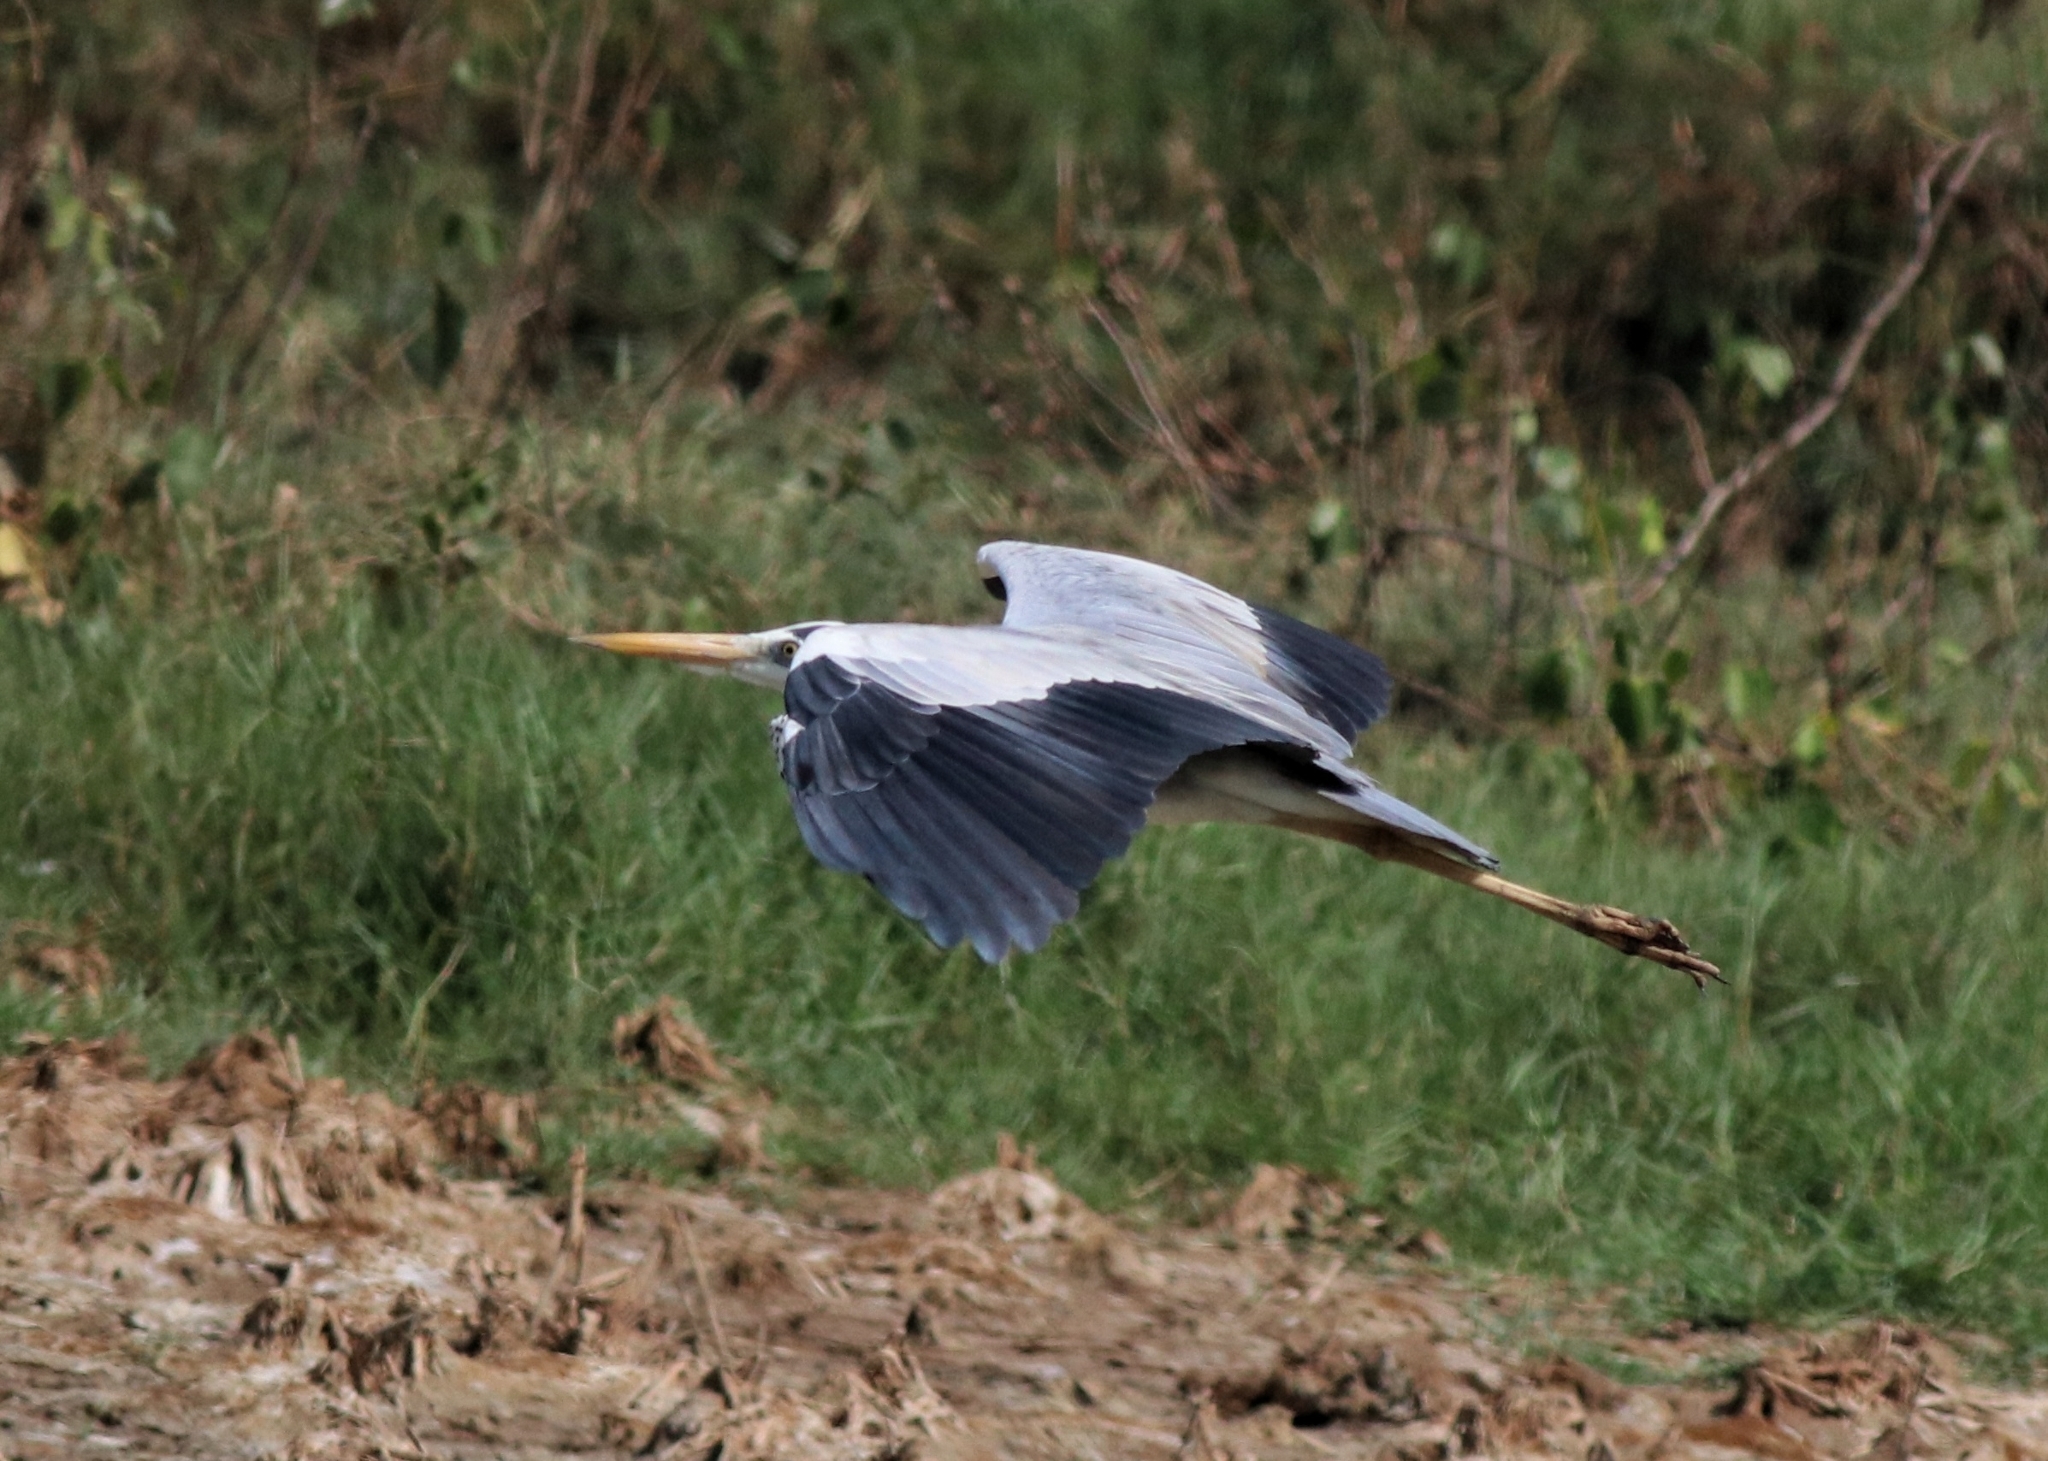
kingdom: Animalia
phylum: Chordata
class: Aves
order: Pelecaniformes
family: Ardeidae
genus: Ardea
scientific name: Ardea cinerea
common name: Grey heron
